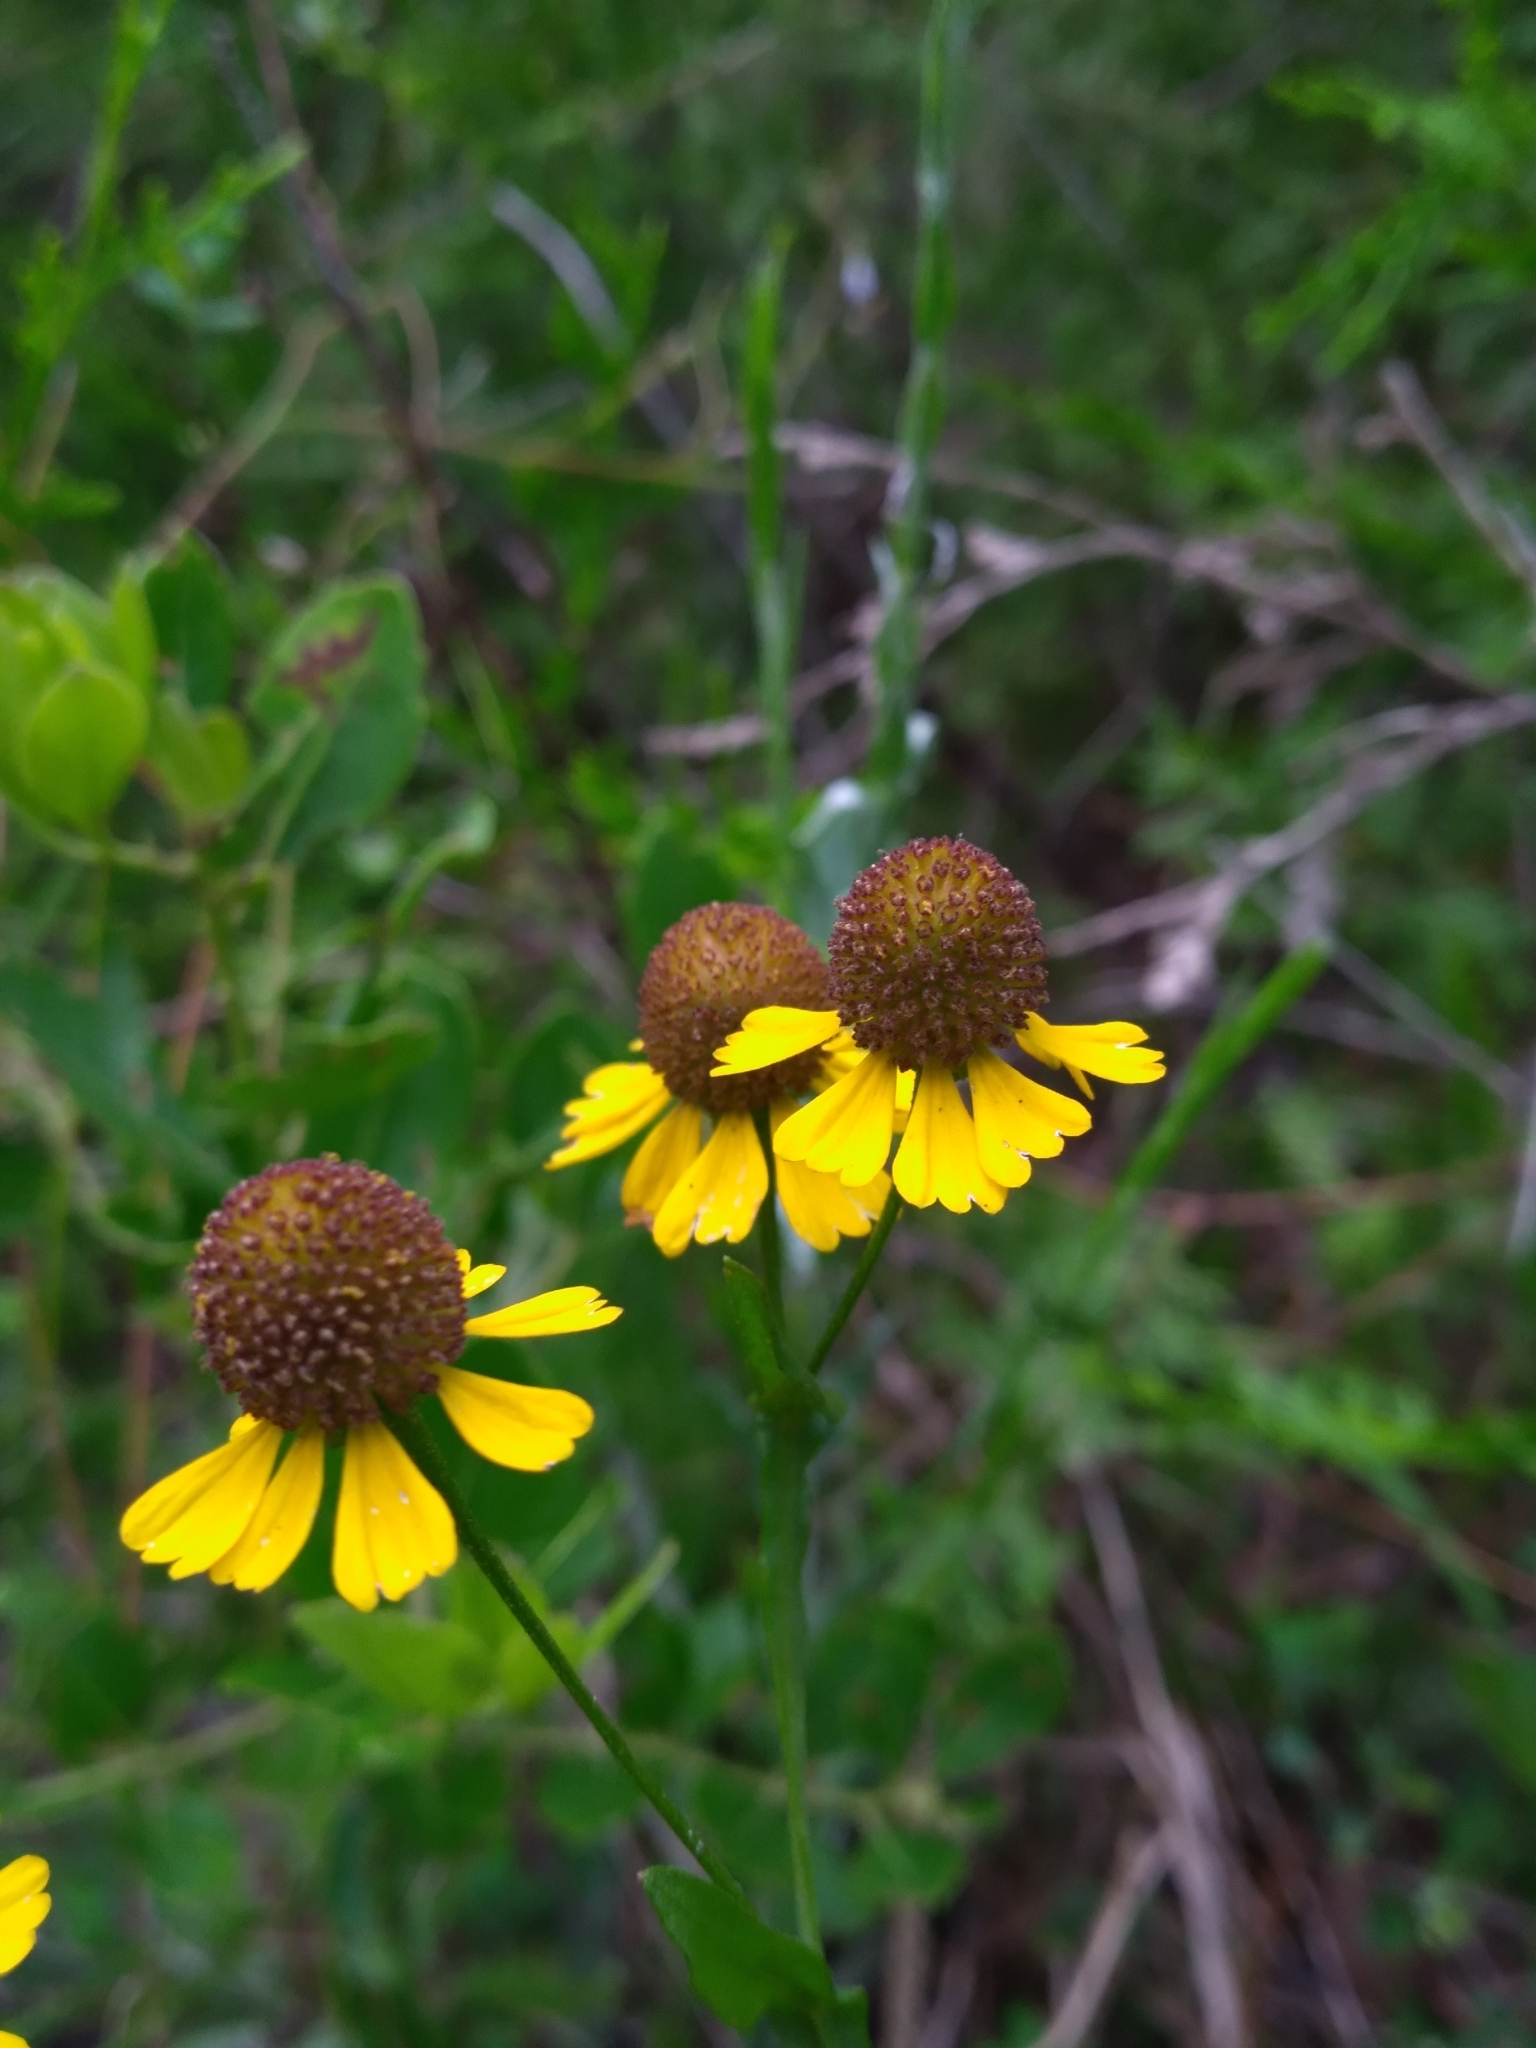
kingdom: Plantae
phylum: Tracheophyta
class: Magnoliopsida
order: Asterales
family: Asteraceae
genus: Helenium
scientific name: Helenium flexuosum
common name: Naked-flowered sneezeweed
